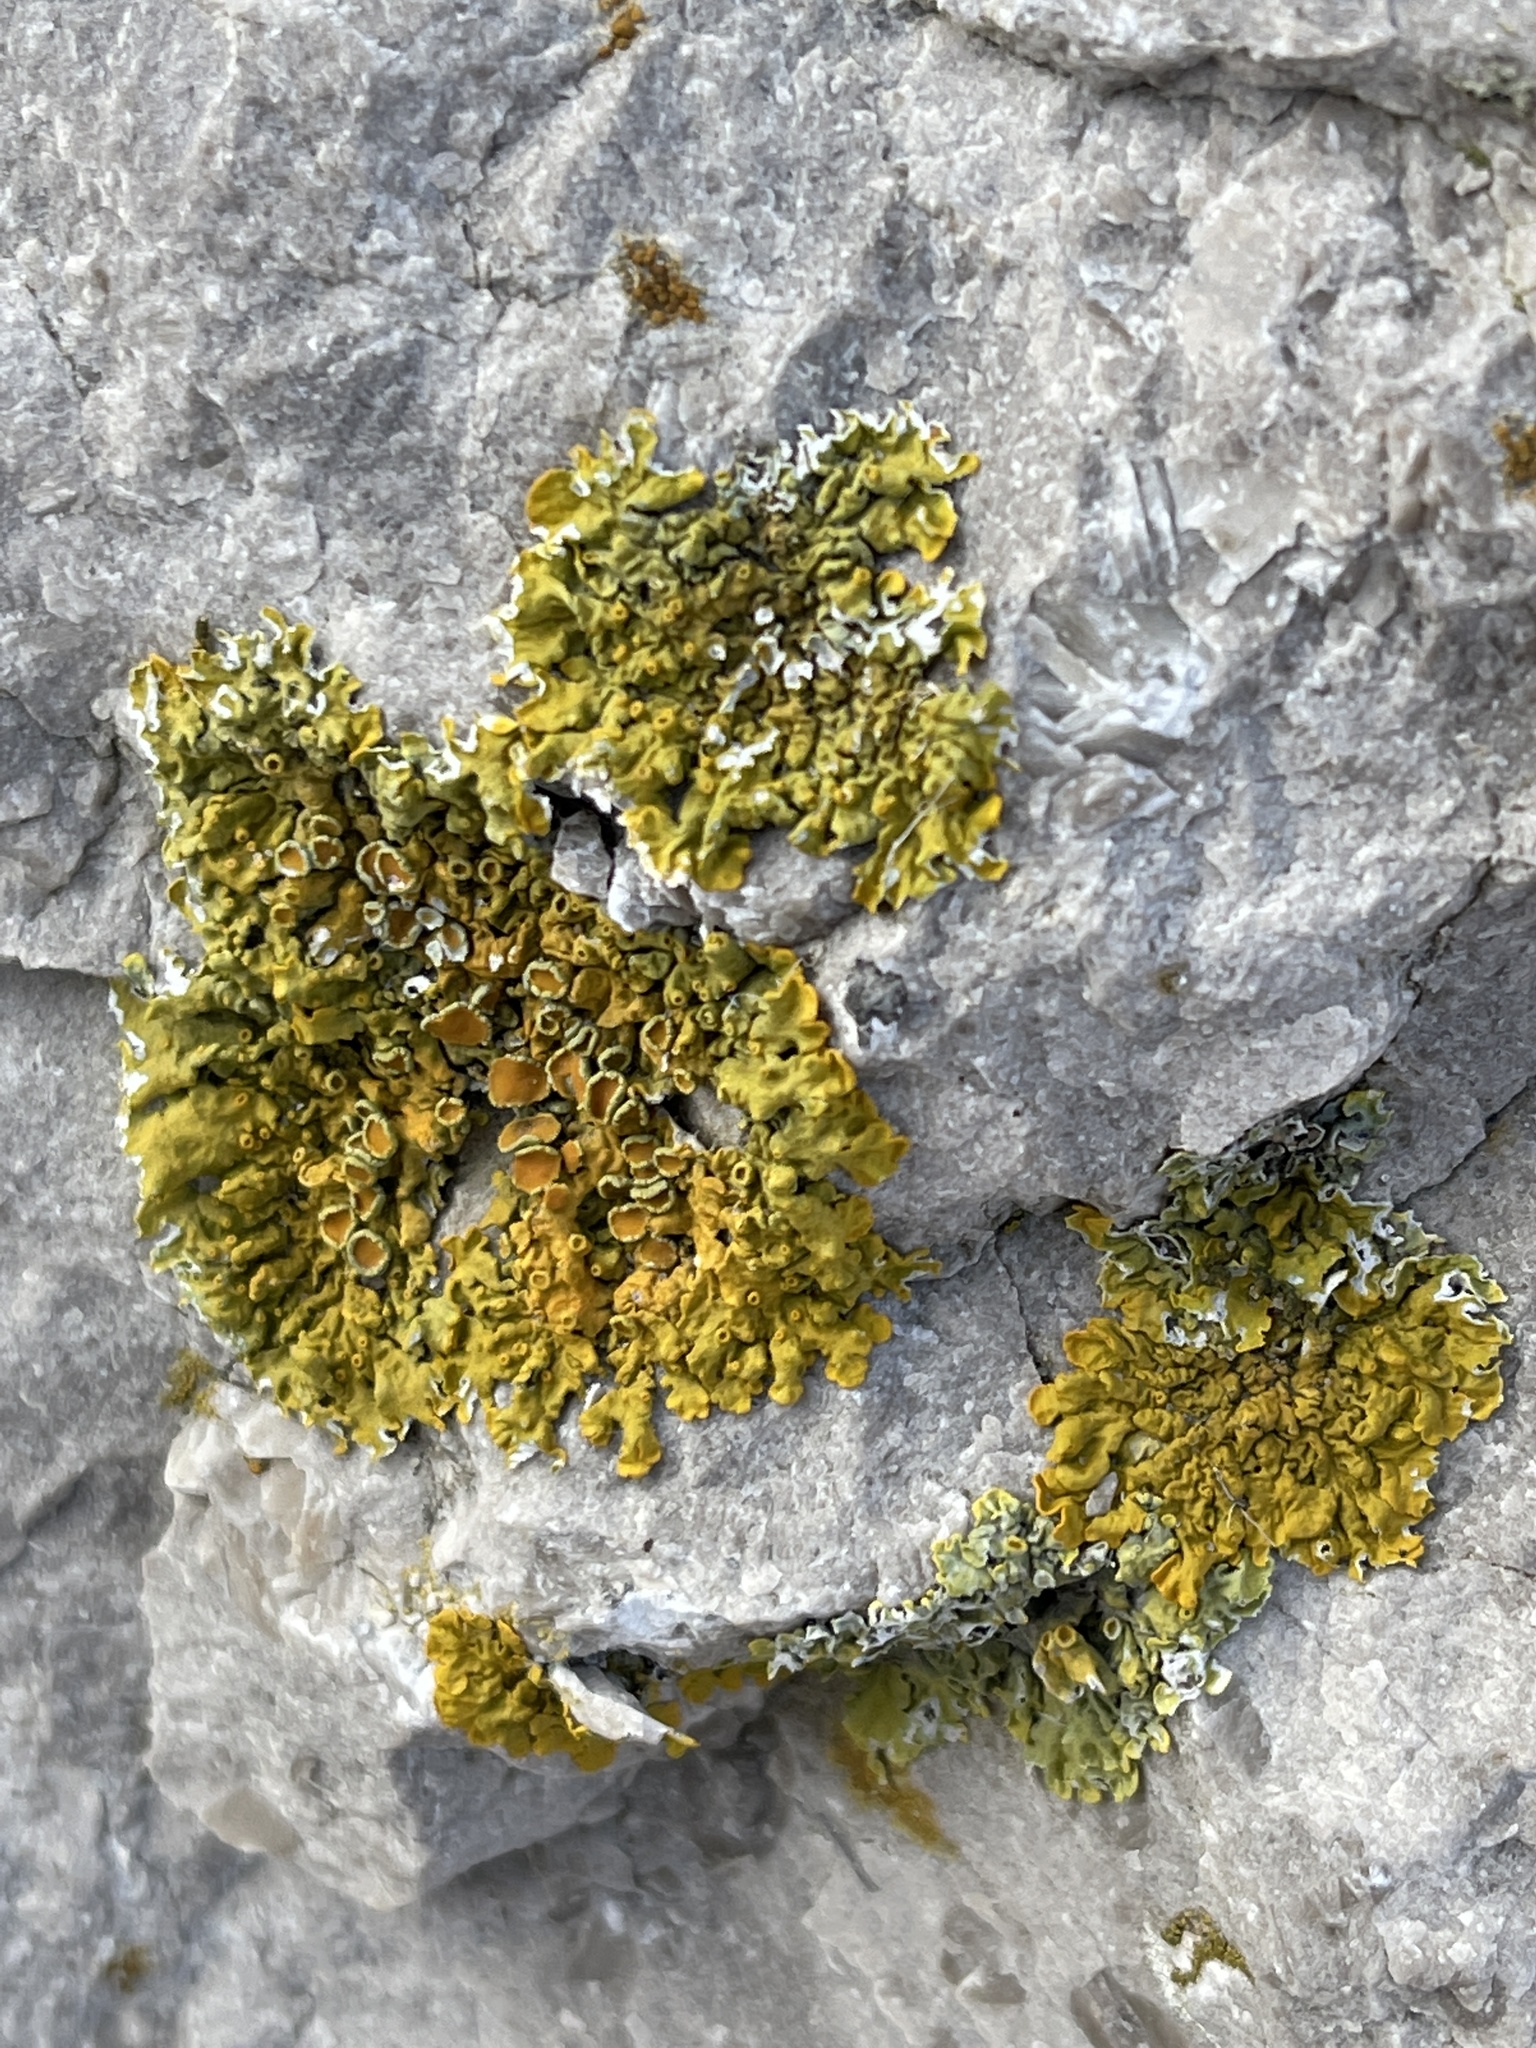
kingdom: Fungi
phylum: Ascomycota
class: Lecanoromycetes
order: Teloschistales
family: Teloschistaceae
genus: Xanthoria
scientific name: Xanthoria parietina
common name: Common orange lichen
